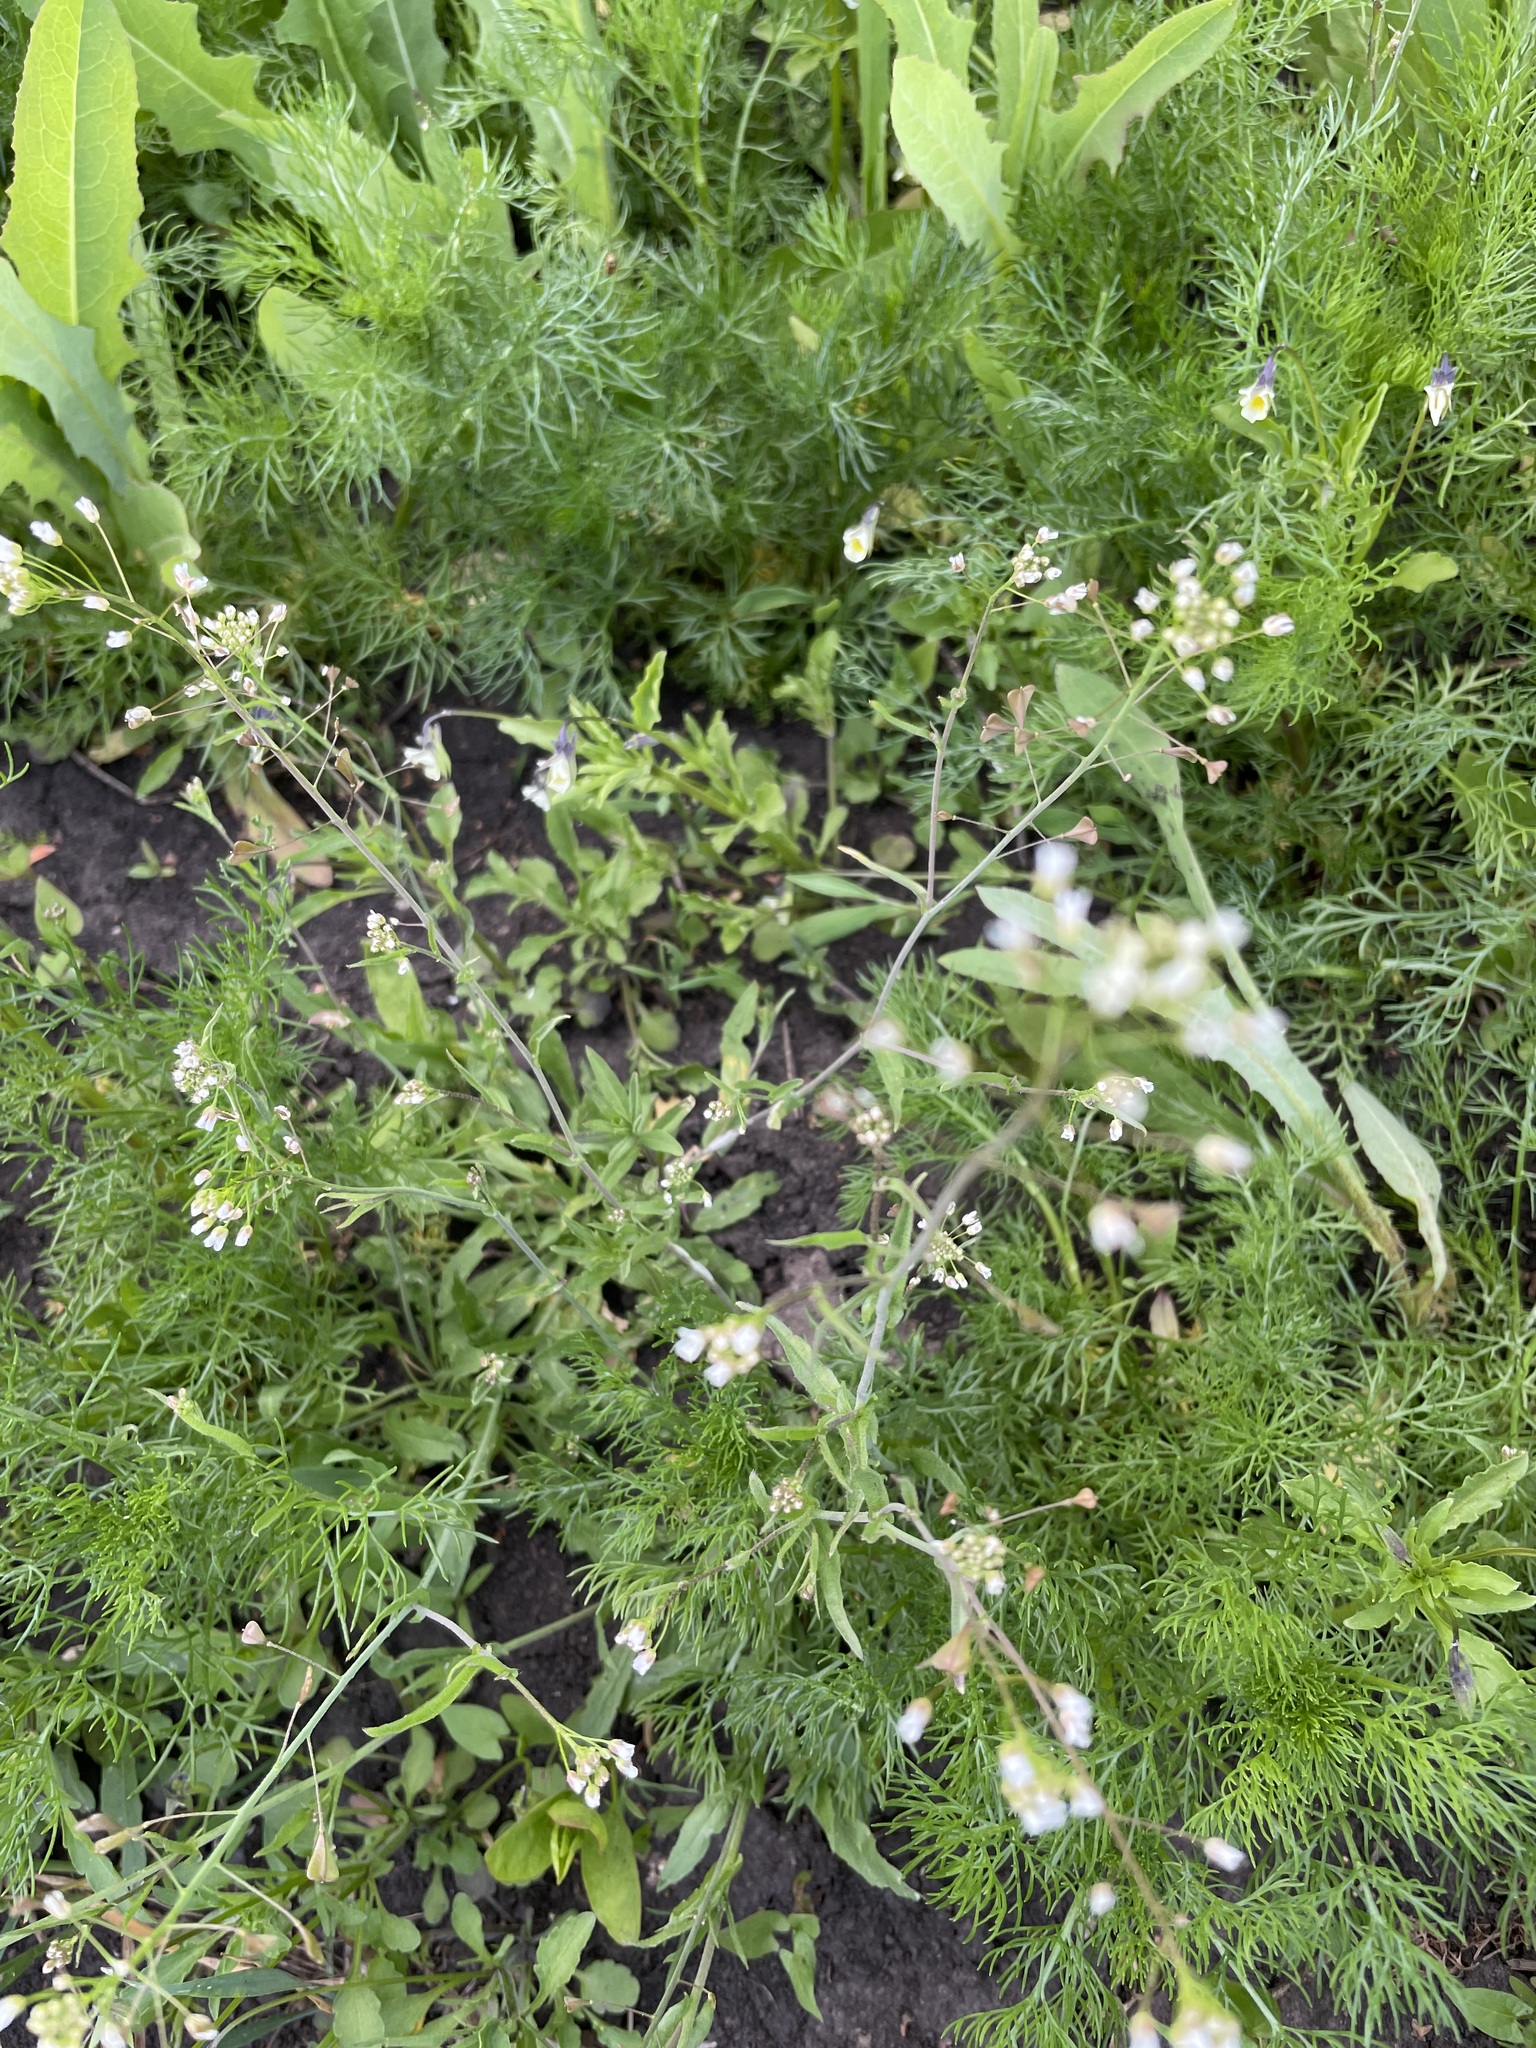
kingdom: Plantae
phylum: Tracheophyta
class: Magnoliopsida
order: Brassicales
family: Brassicaceae
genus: Capsella
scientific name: Capsella bursa-pastoris
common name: Shepherd's purse
